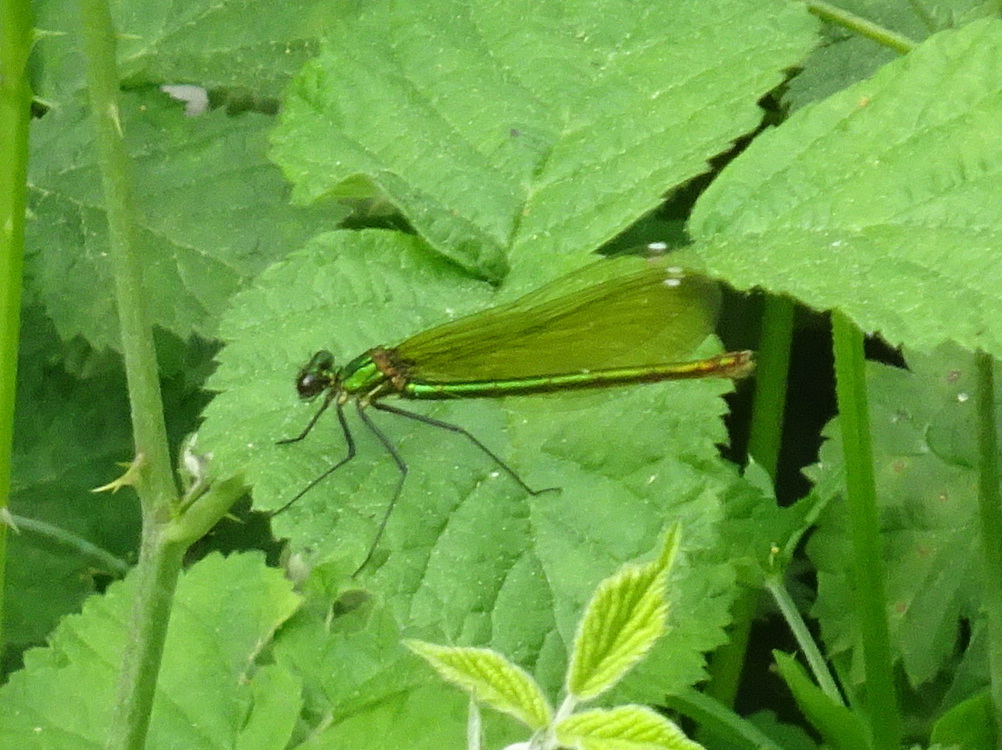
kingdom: Animalia
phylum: Arthropoda
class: Insecta
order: Odonata
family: Calopterygidae
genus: Calopteryx
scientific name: Calopteryx splendens
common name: Banded demoiselle
